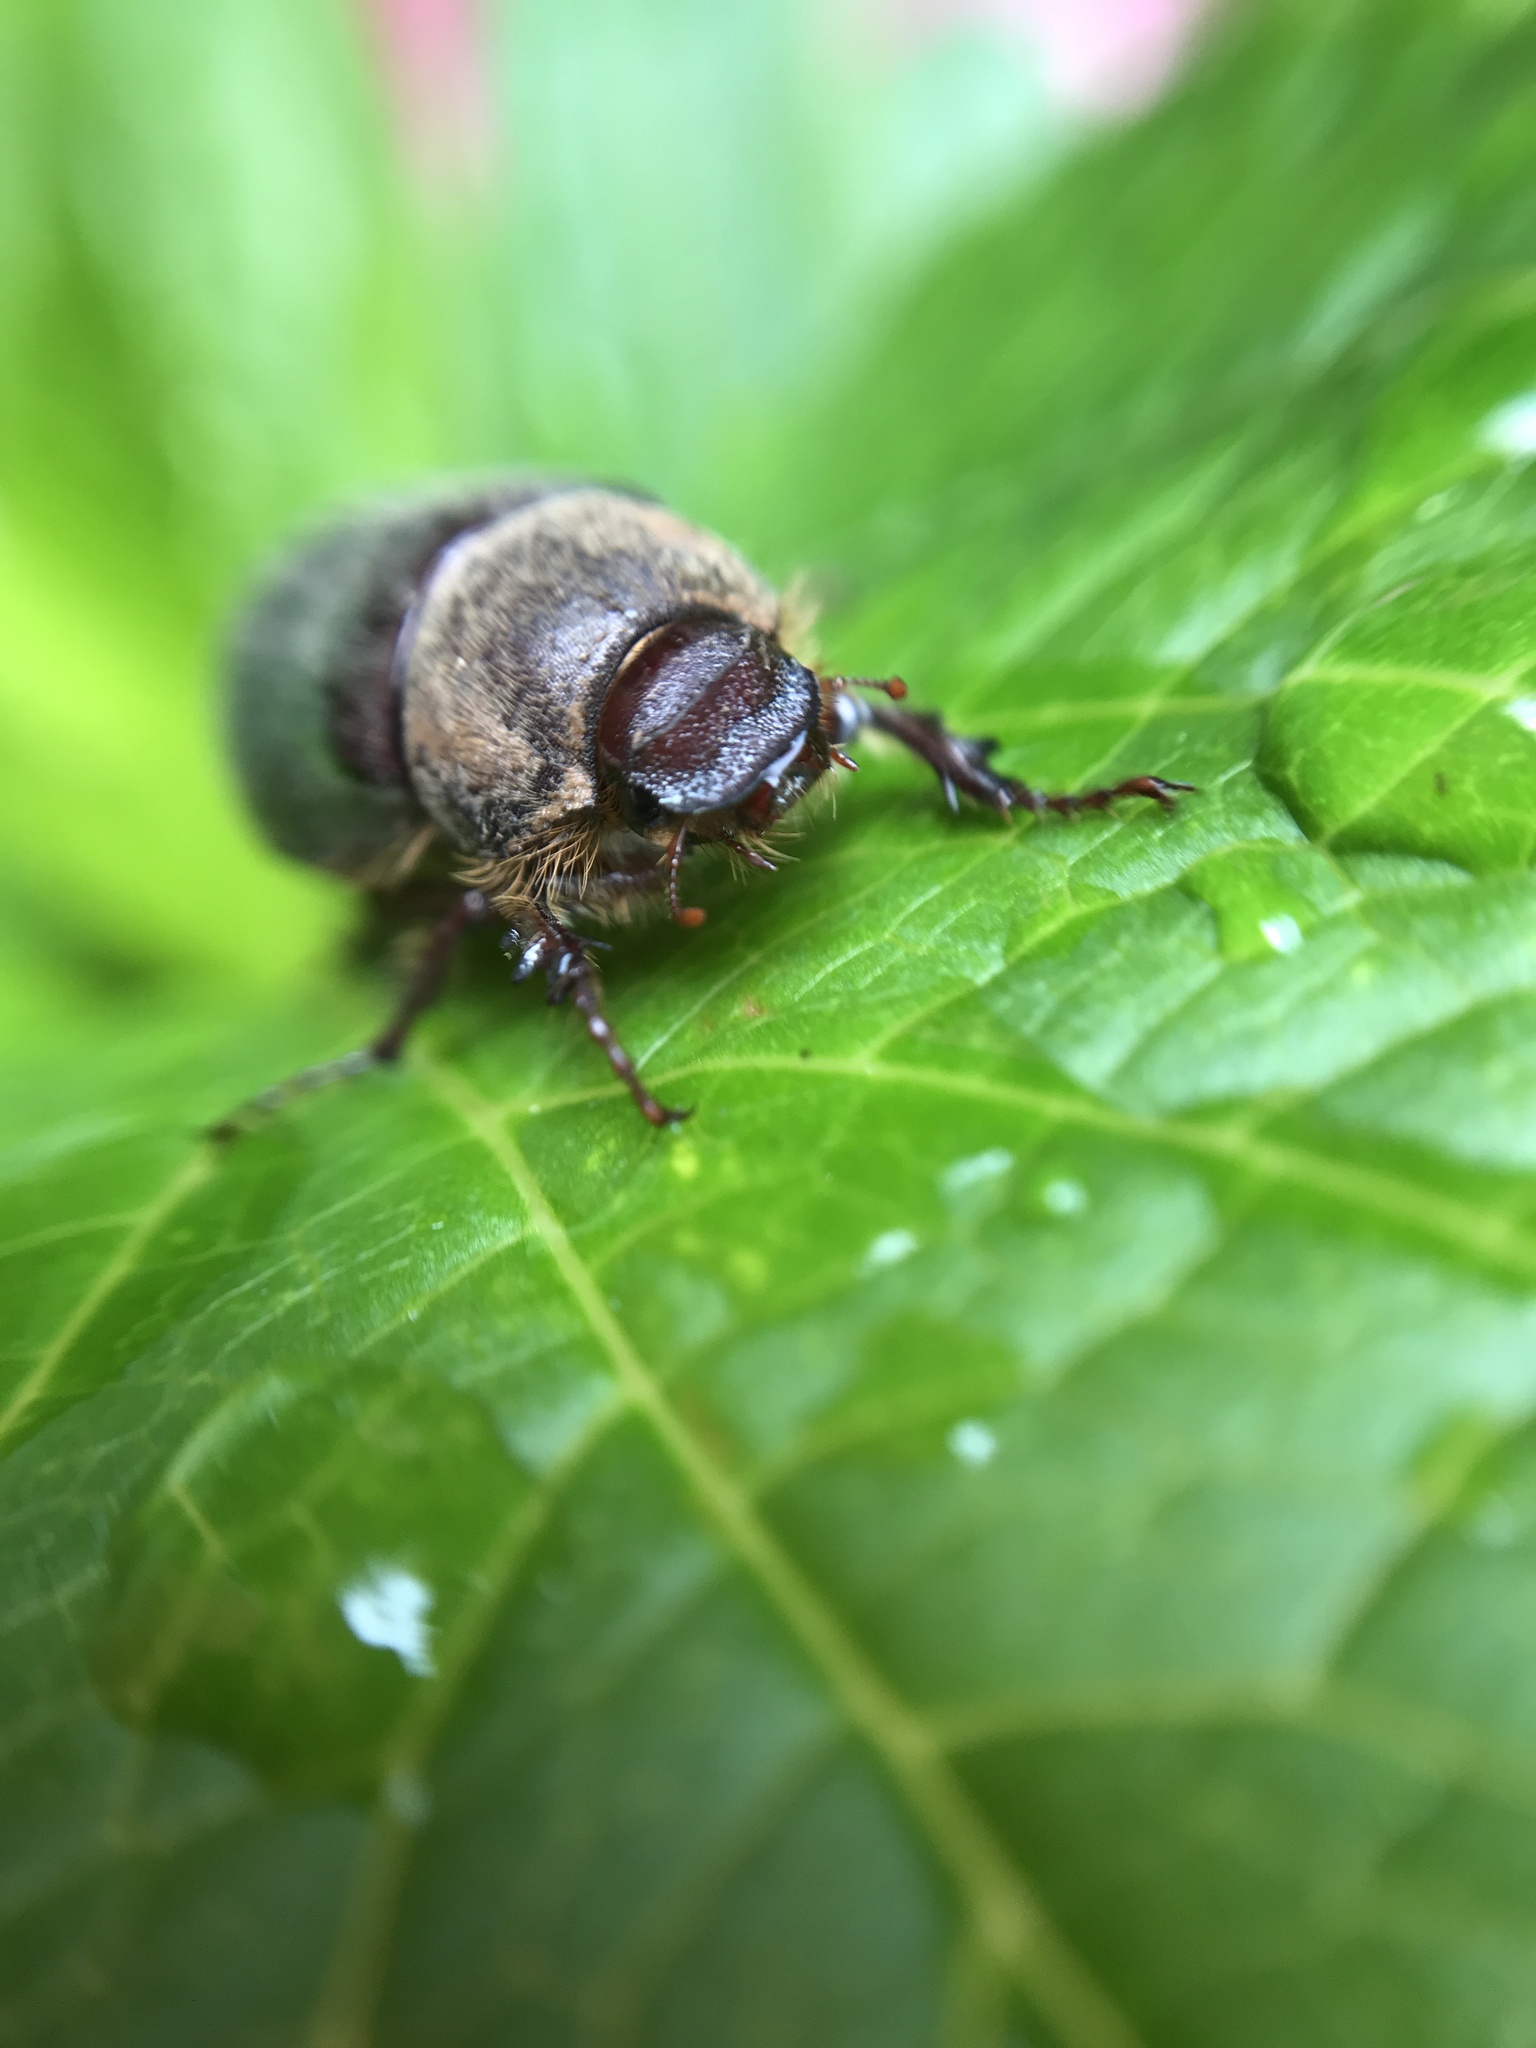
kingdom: Animalia
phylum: Arthropoda
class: Insecta
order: Coleoptera
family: Scarabaeidae
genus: Aplidia
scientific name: Aplidia transversa
